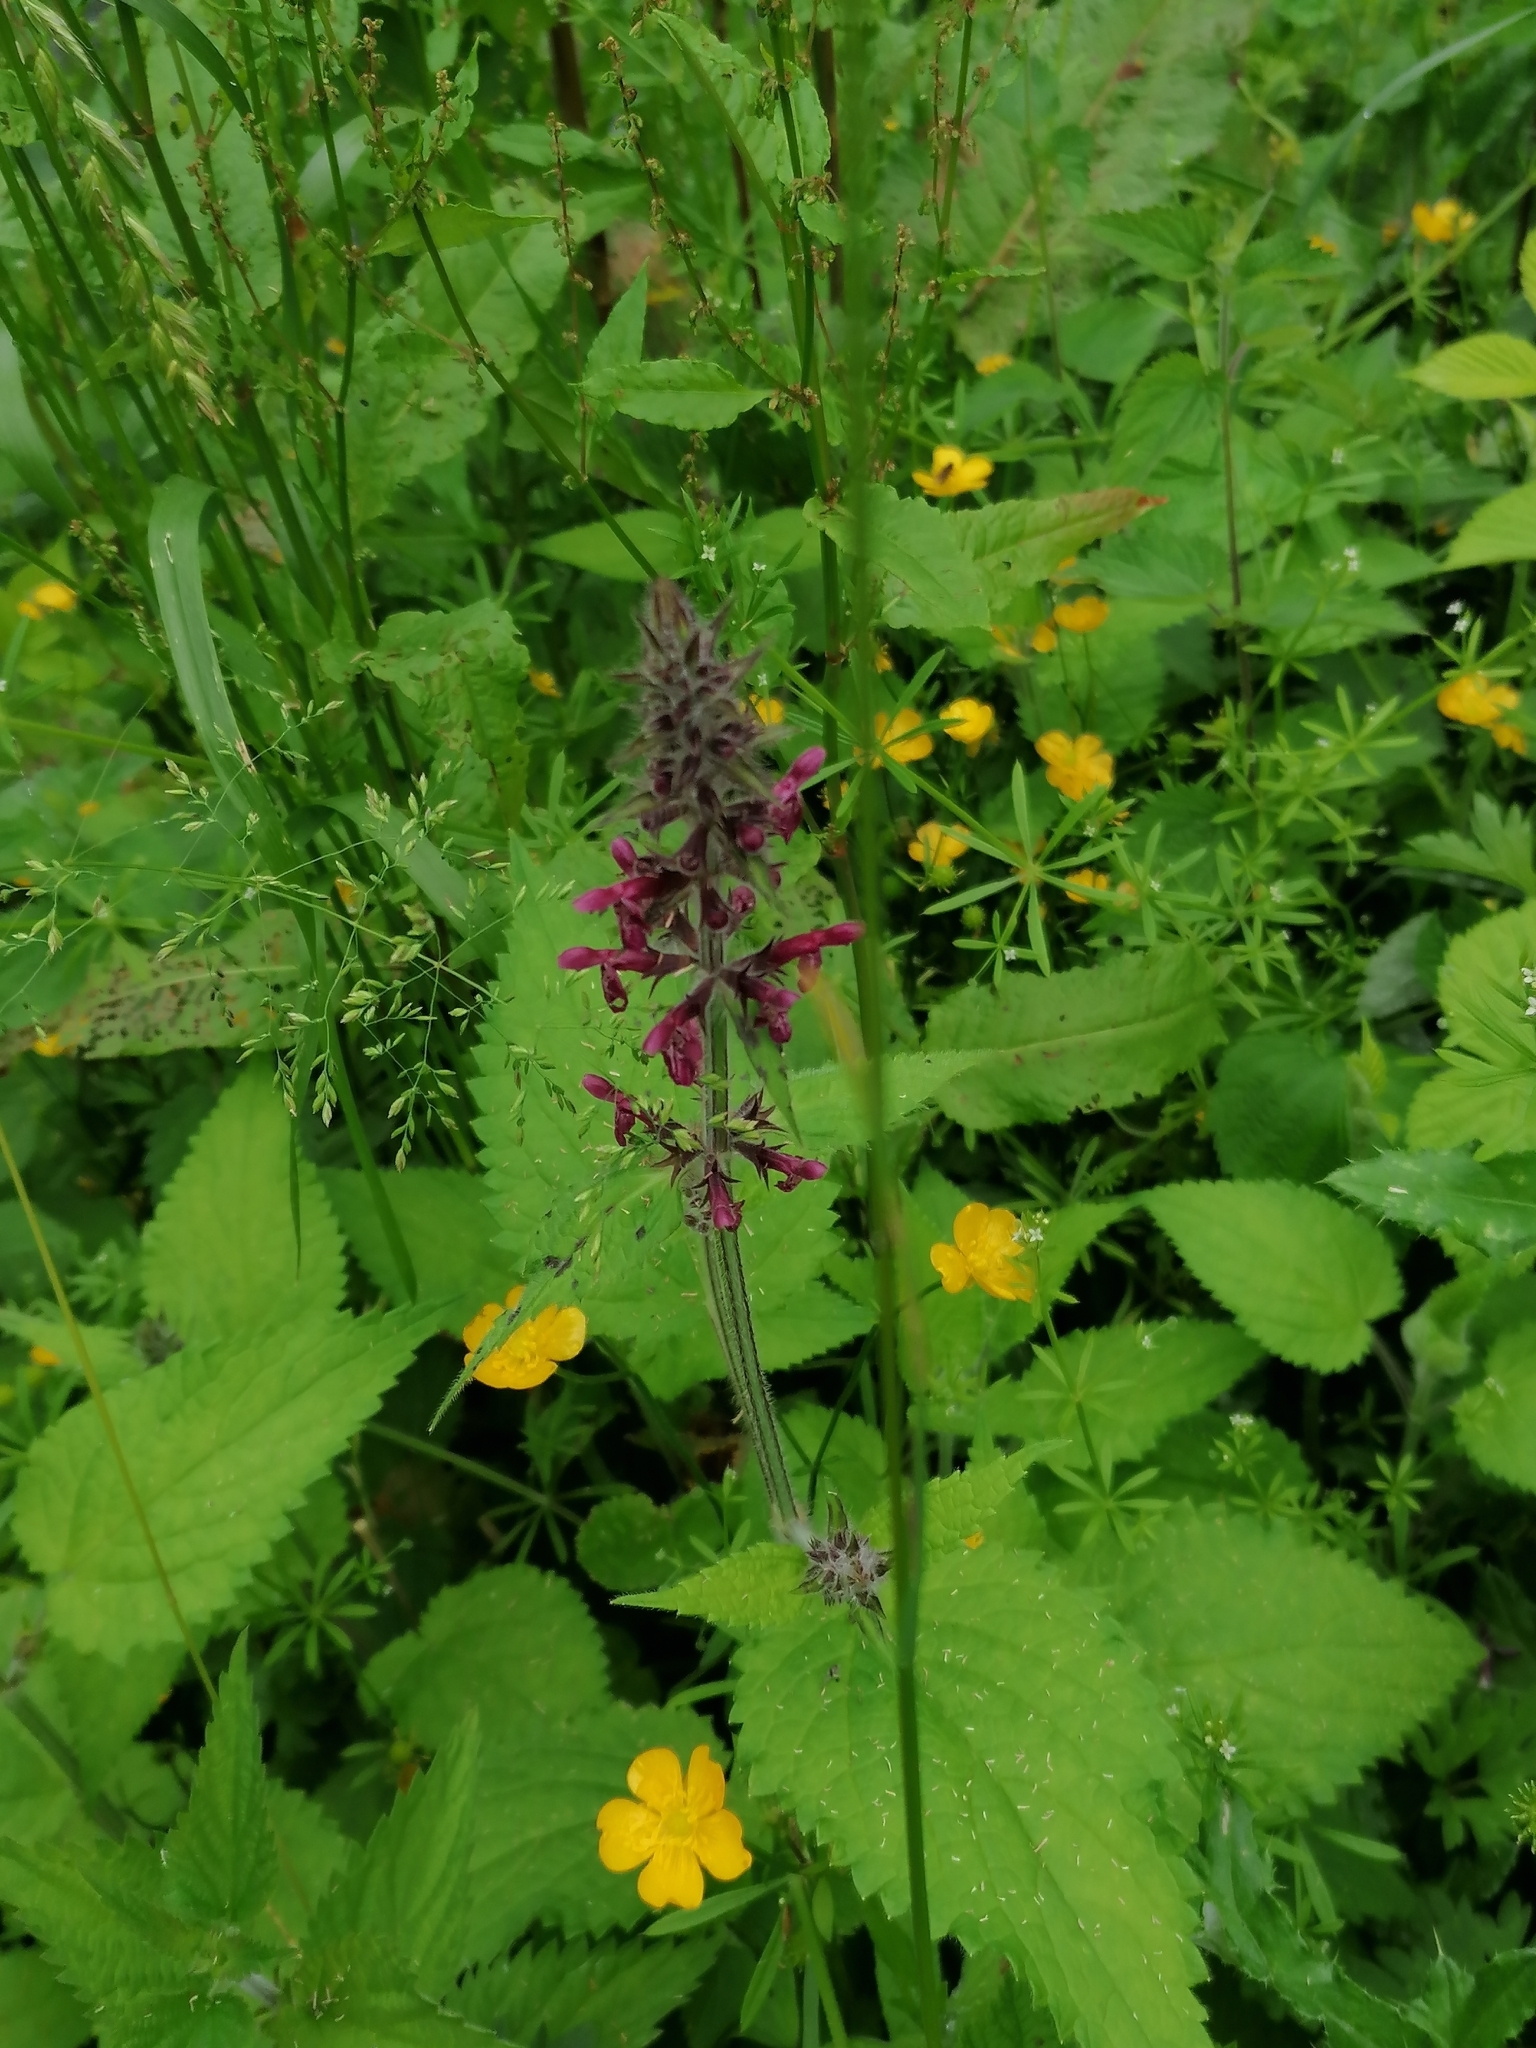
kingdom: Plantae
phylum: Tracheophyta
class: Magnoliopsida
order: Lamiales
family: Lamiaceae
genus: Stachys
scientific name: Stachys sylvatica
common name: Hedge woundwort
